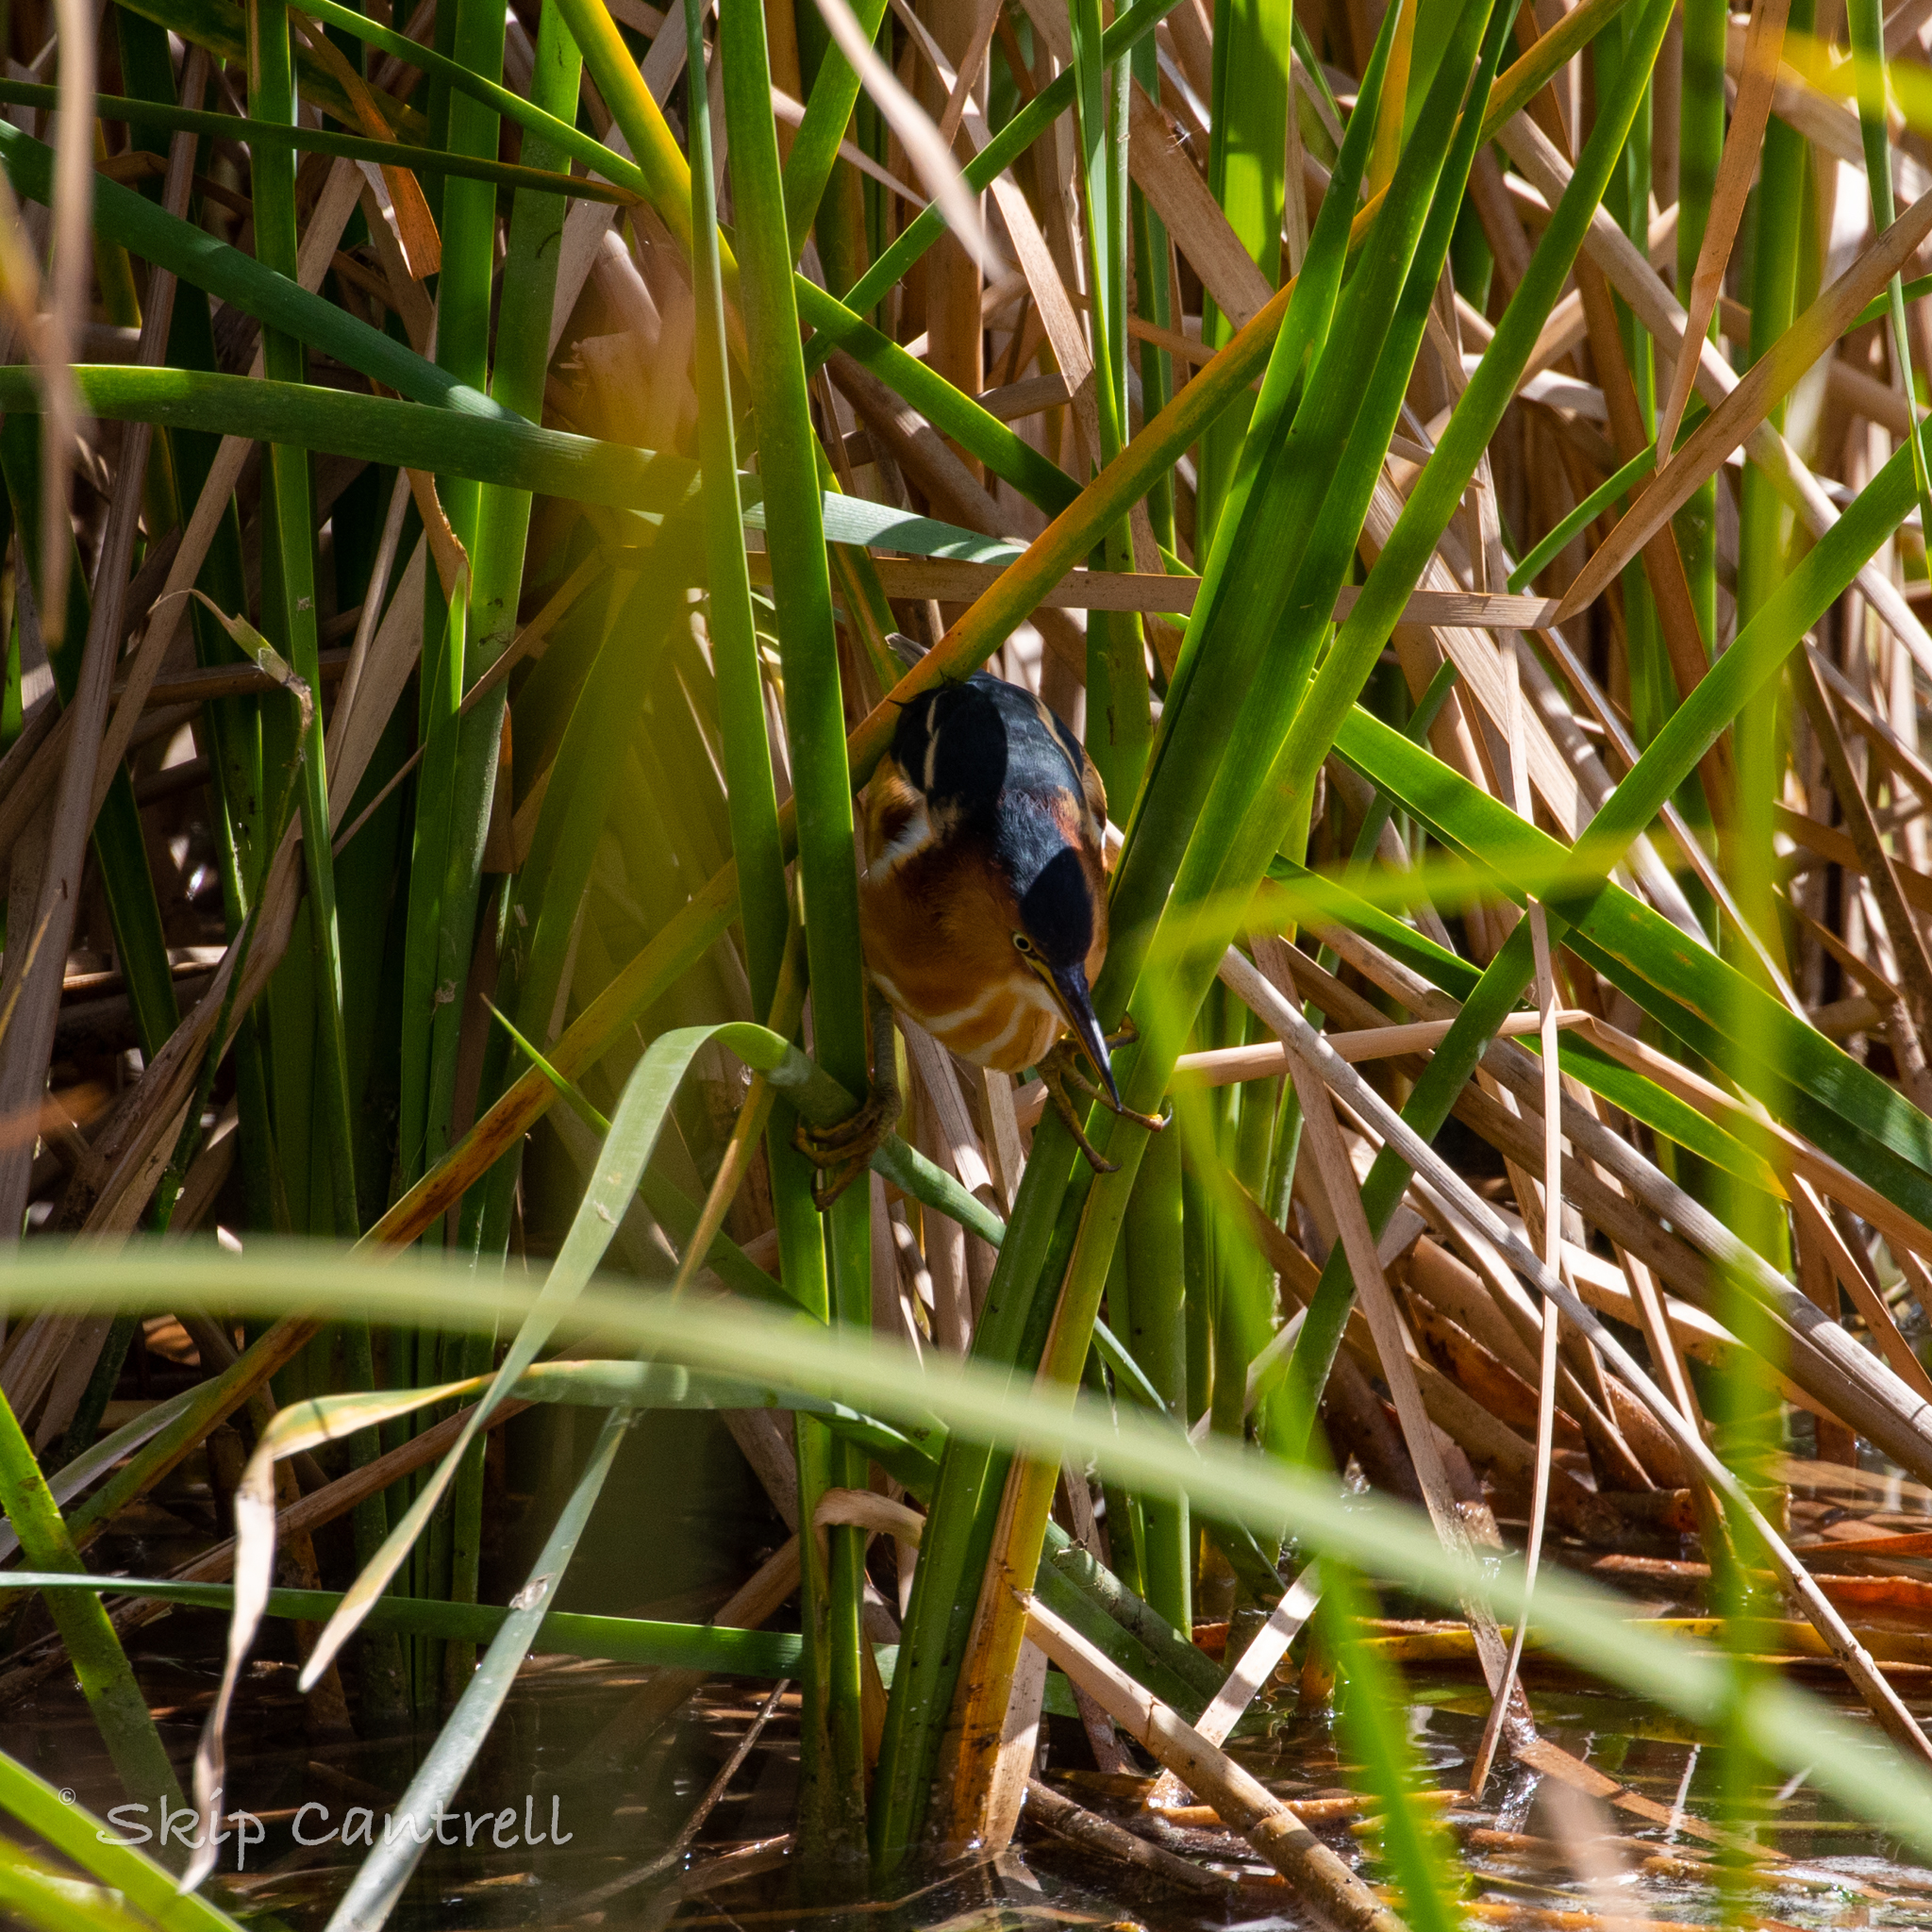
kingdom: Animalia
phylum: Chordata
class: Aves
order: Pelecaniformes
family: Ardeidae
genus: Ixobrychus
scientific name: Ixobrychus exilis
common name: Least bittern
